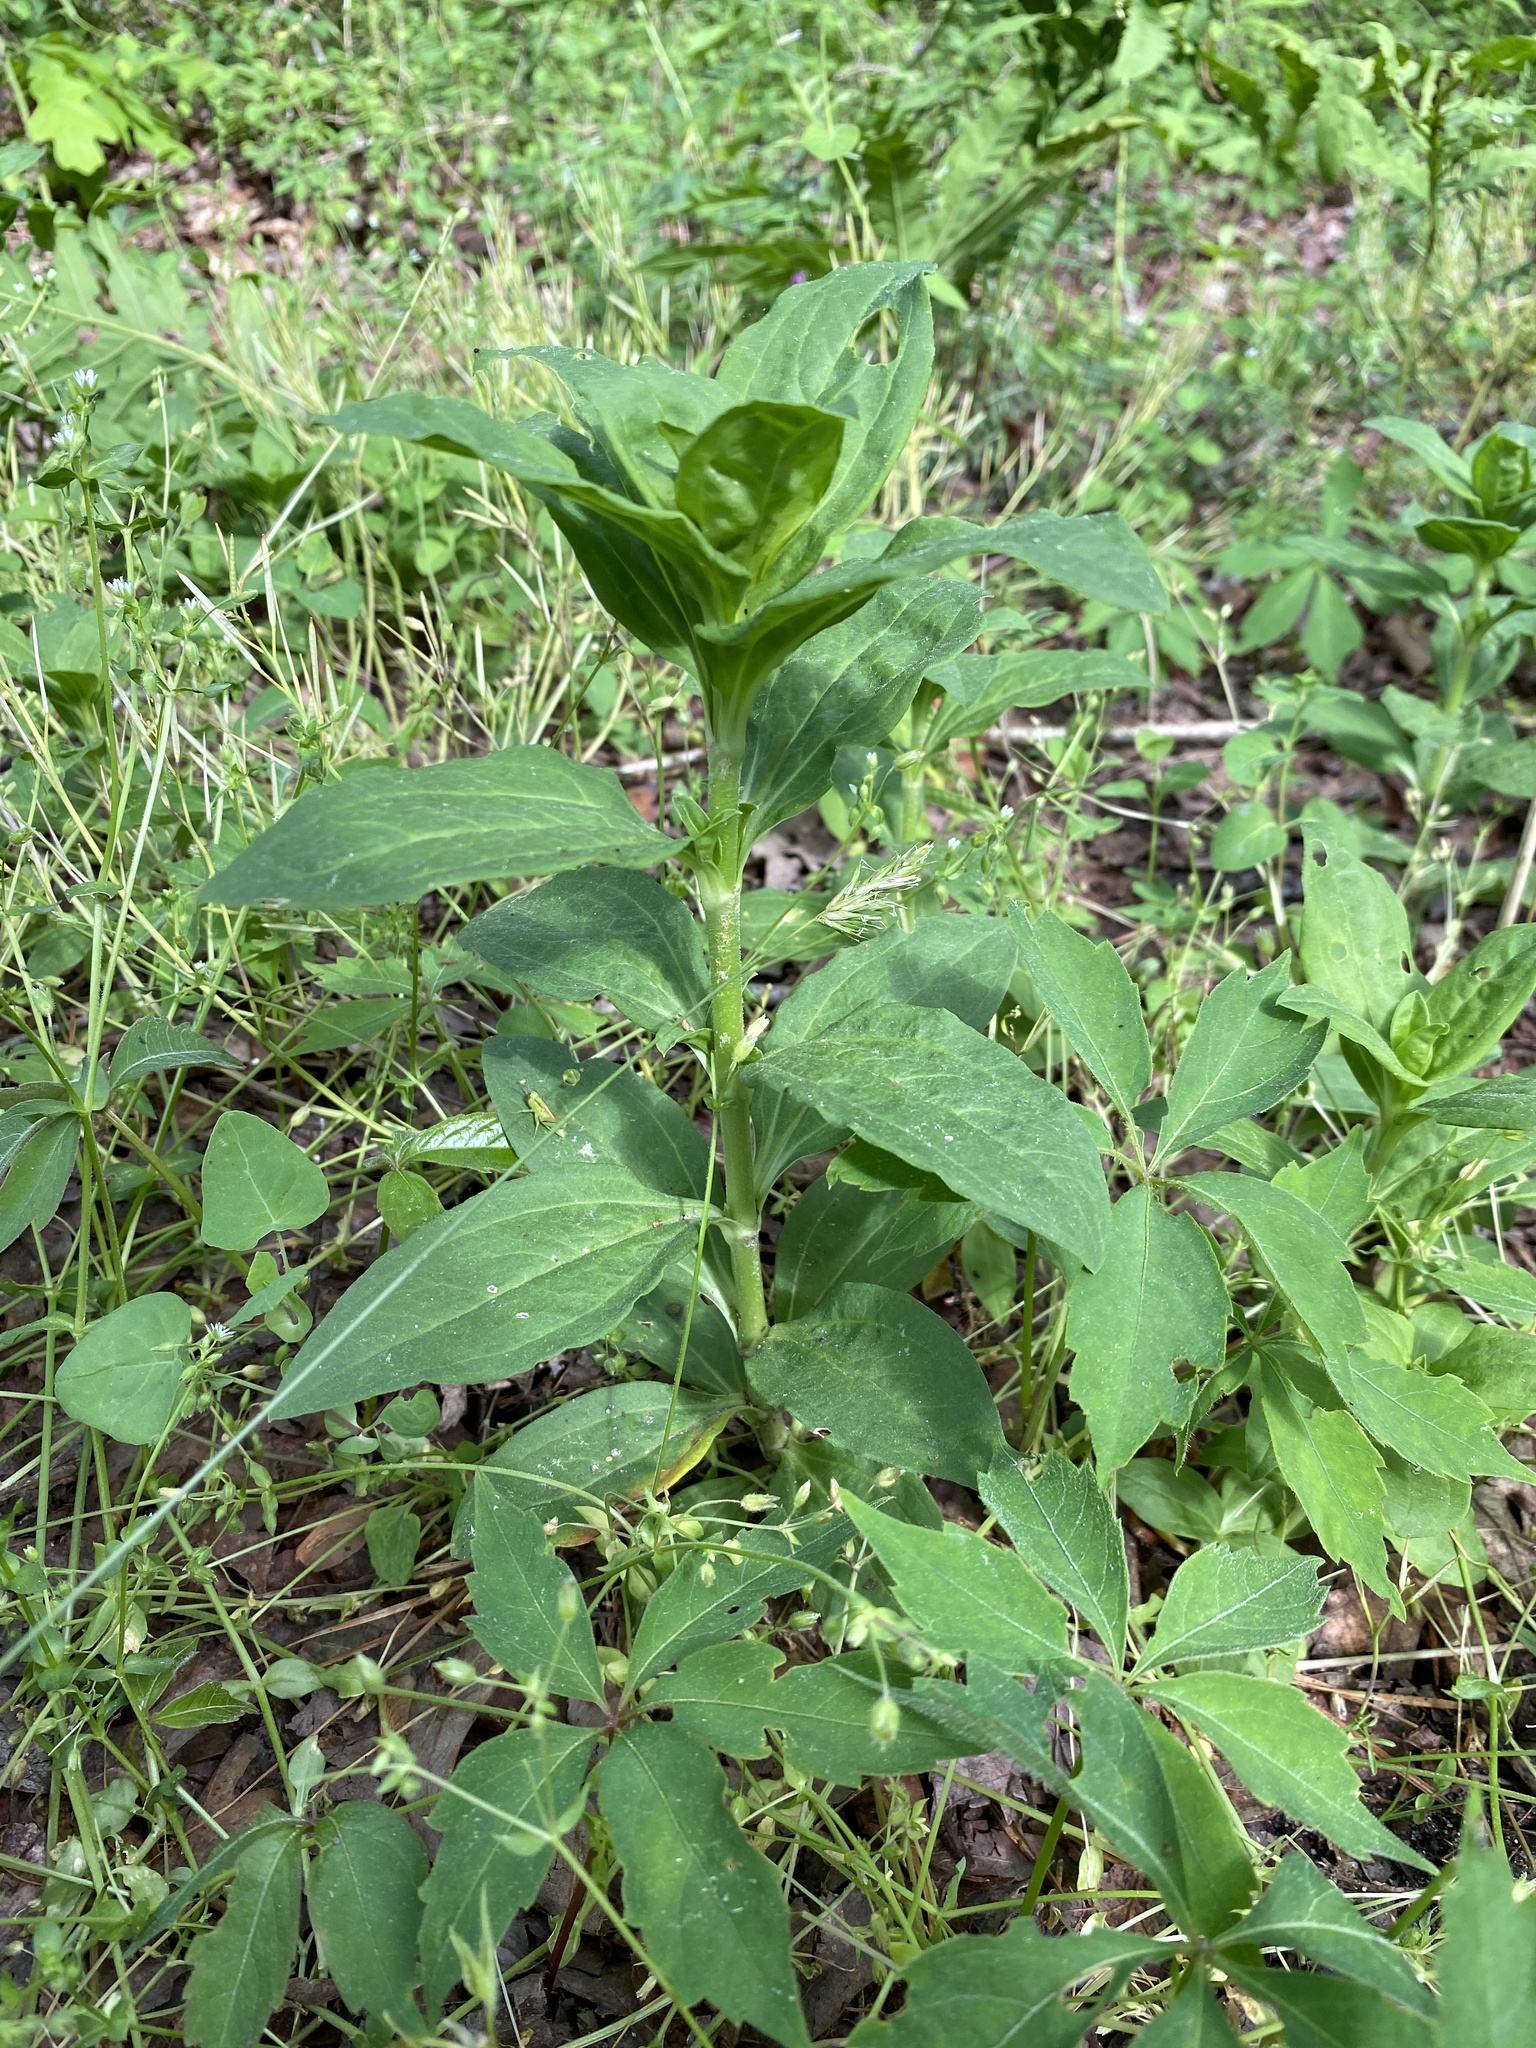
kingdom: Plantae
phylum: Tracheophyta
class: Magnoliopsida
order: Caryophyllales
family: Caryophyllaceae
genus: Saponaria
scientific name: Saponaria officinalis
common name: Soapwort
